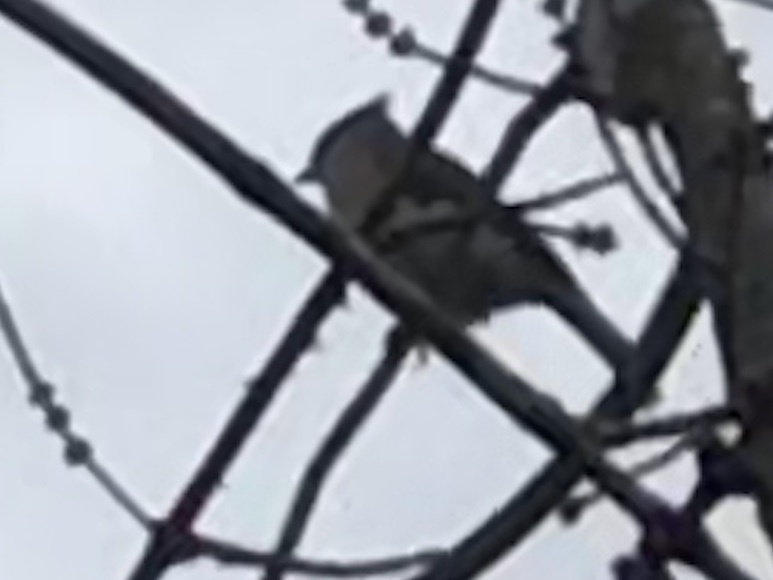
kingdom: Animalia
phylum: Chordata
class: Aves
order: Passeriformes
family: Paridae
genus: Baeolophus
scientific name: Baeolophus bicolor
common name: Tufted titmouse
